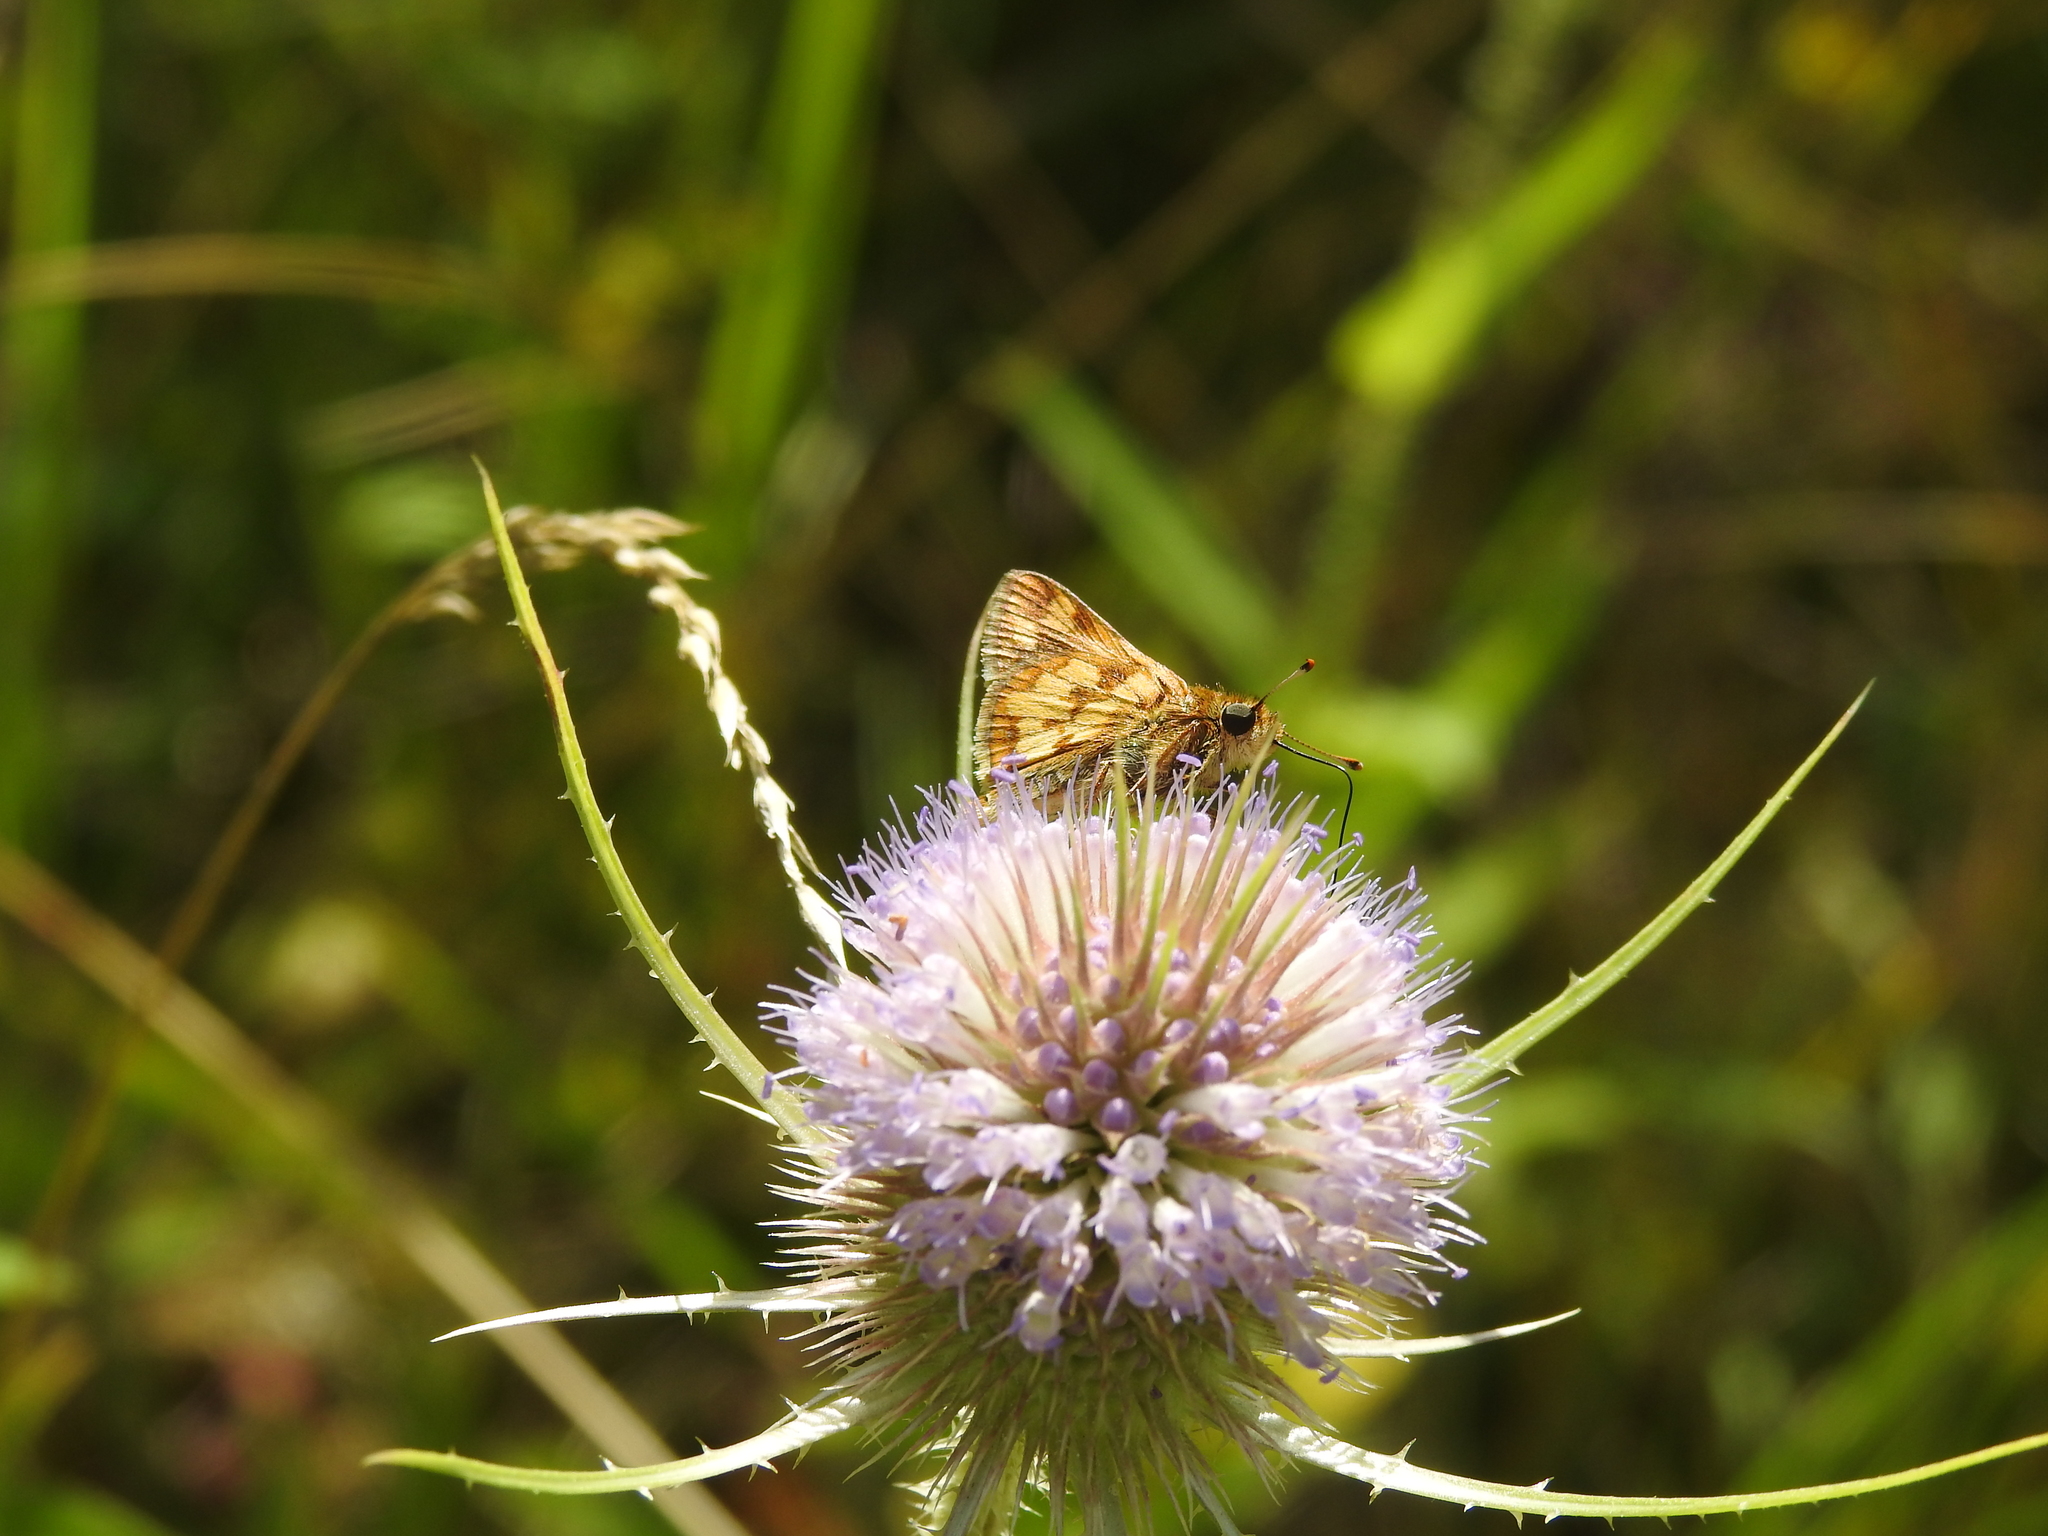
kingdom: Animalia
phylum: Arthropoda
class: Insecta
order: Lepidoptera
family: Hesperiidae
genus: Polites
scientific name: Polites coras
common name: Peck's skipper
